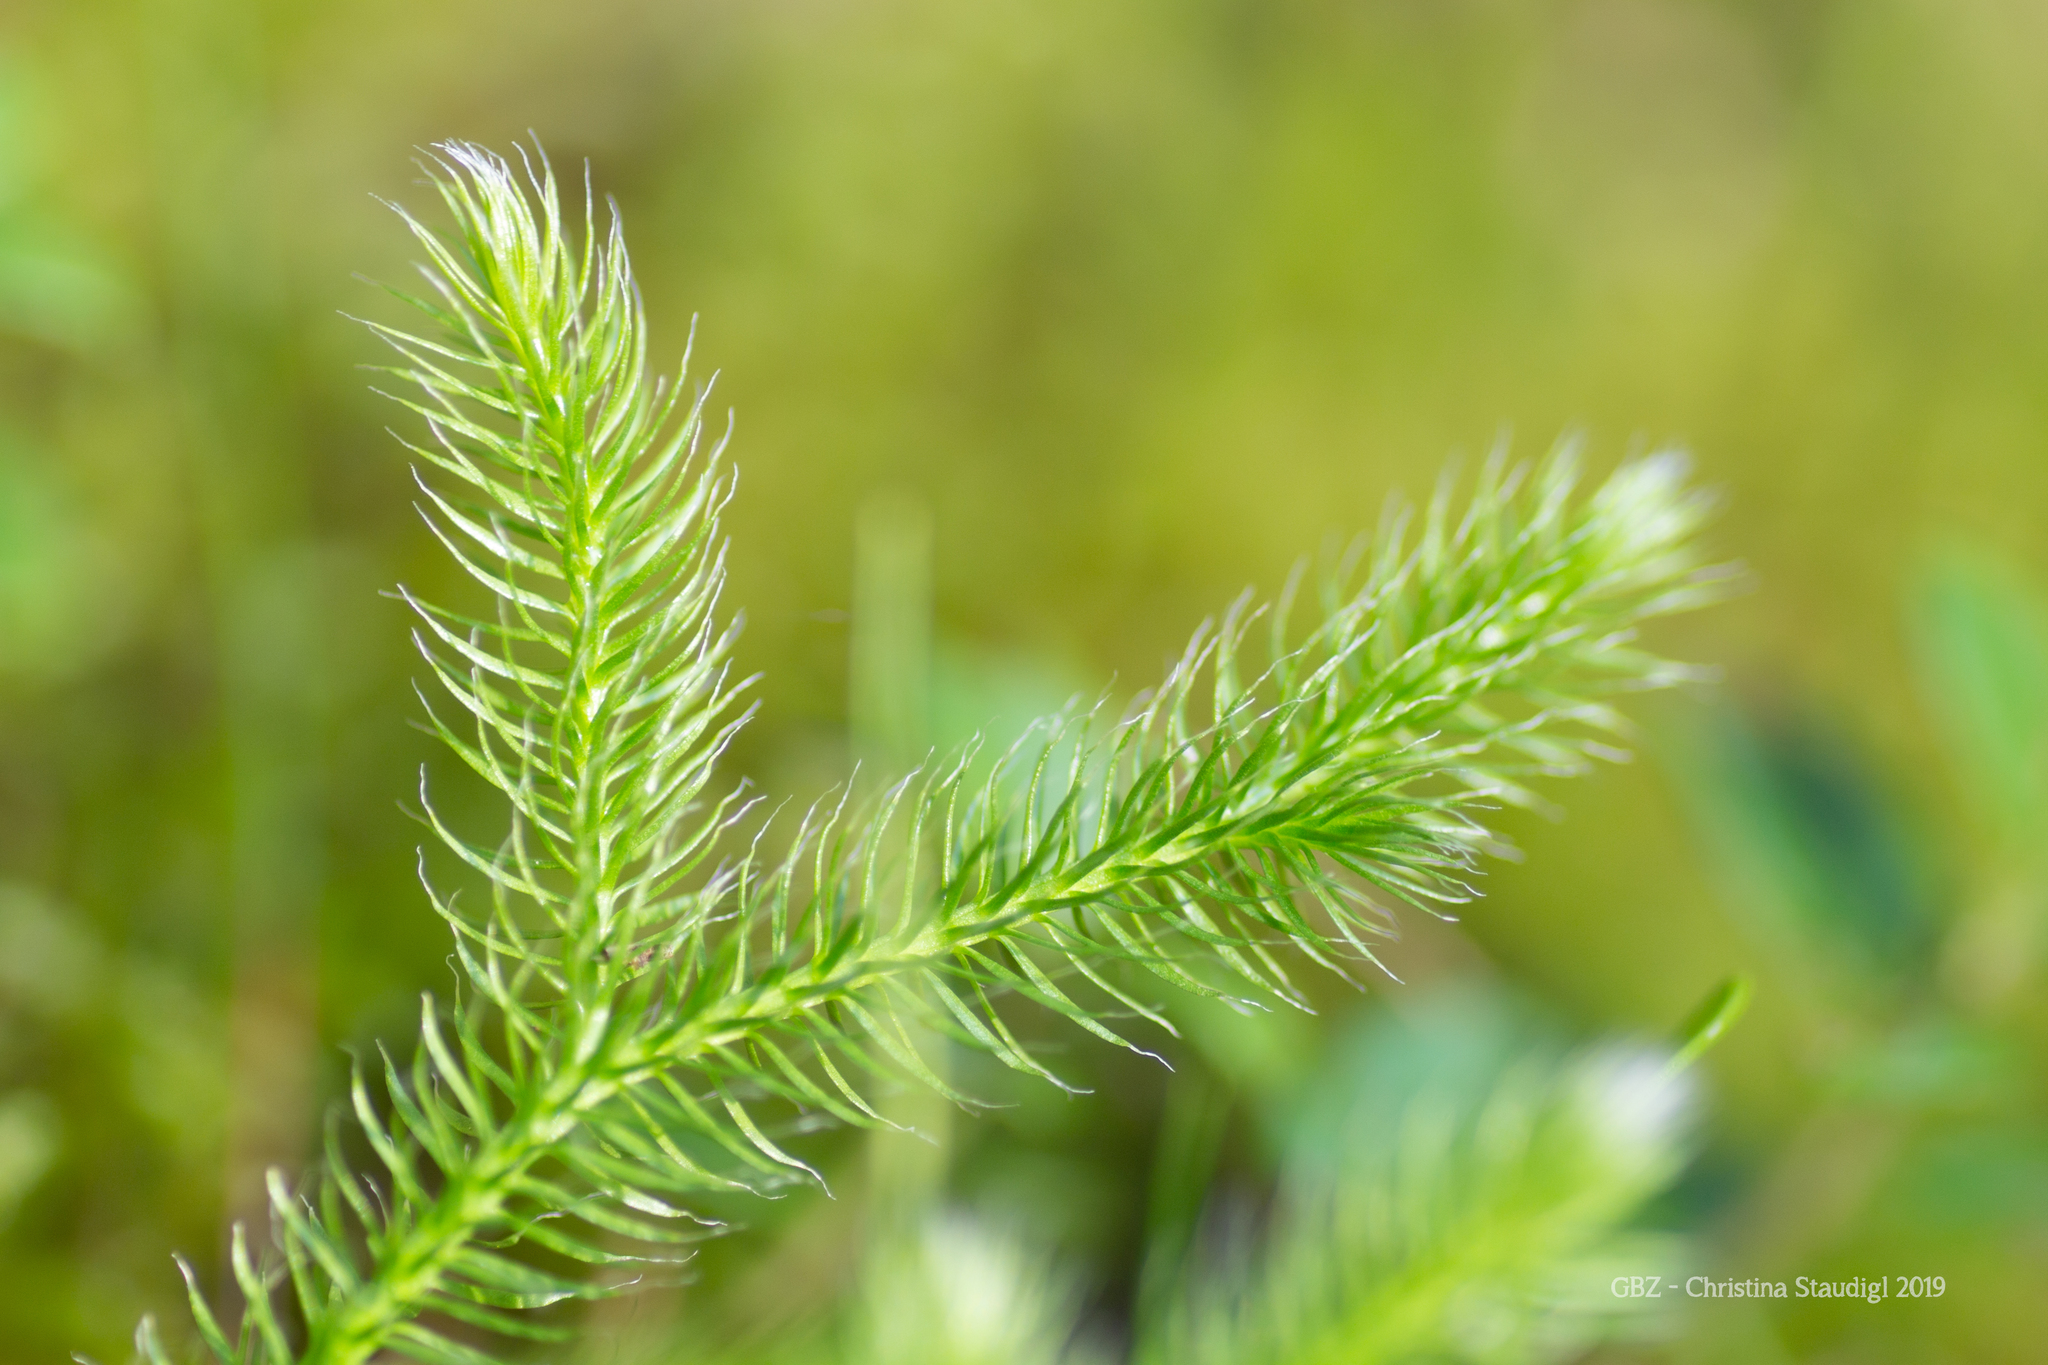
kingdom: Plantae
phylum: Tracheophyta
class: Lycopodiopsida
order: Lycopodiales
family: Lycopodiaceae
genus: Spinulum
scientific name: Spinulum annotinum
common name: Interrupted club-moss
